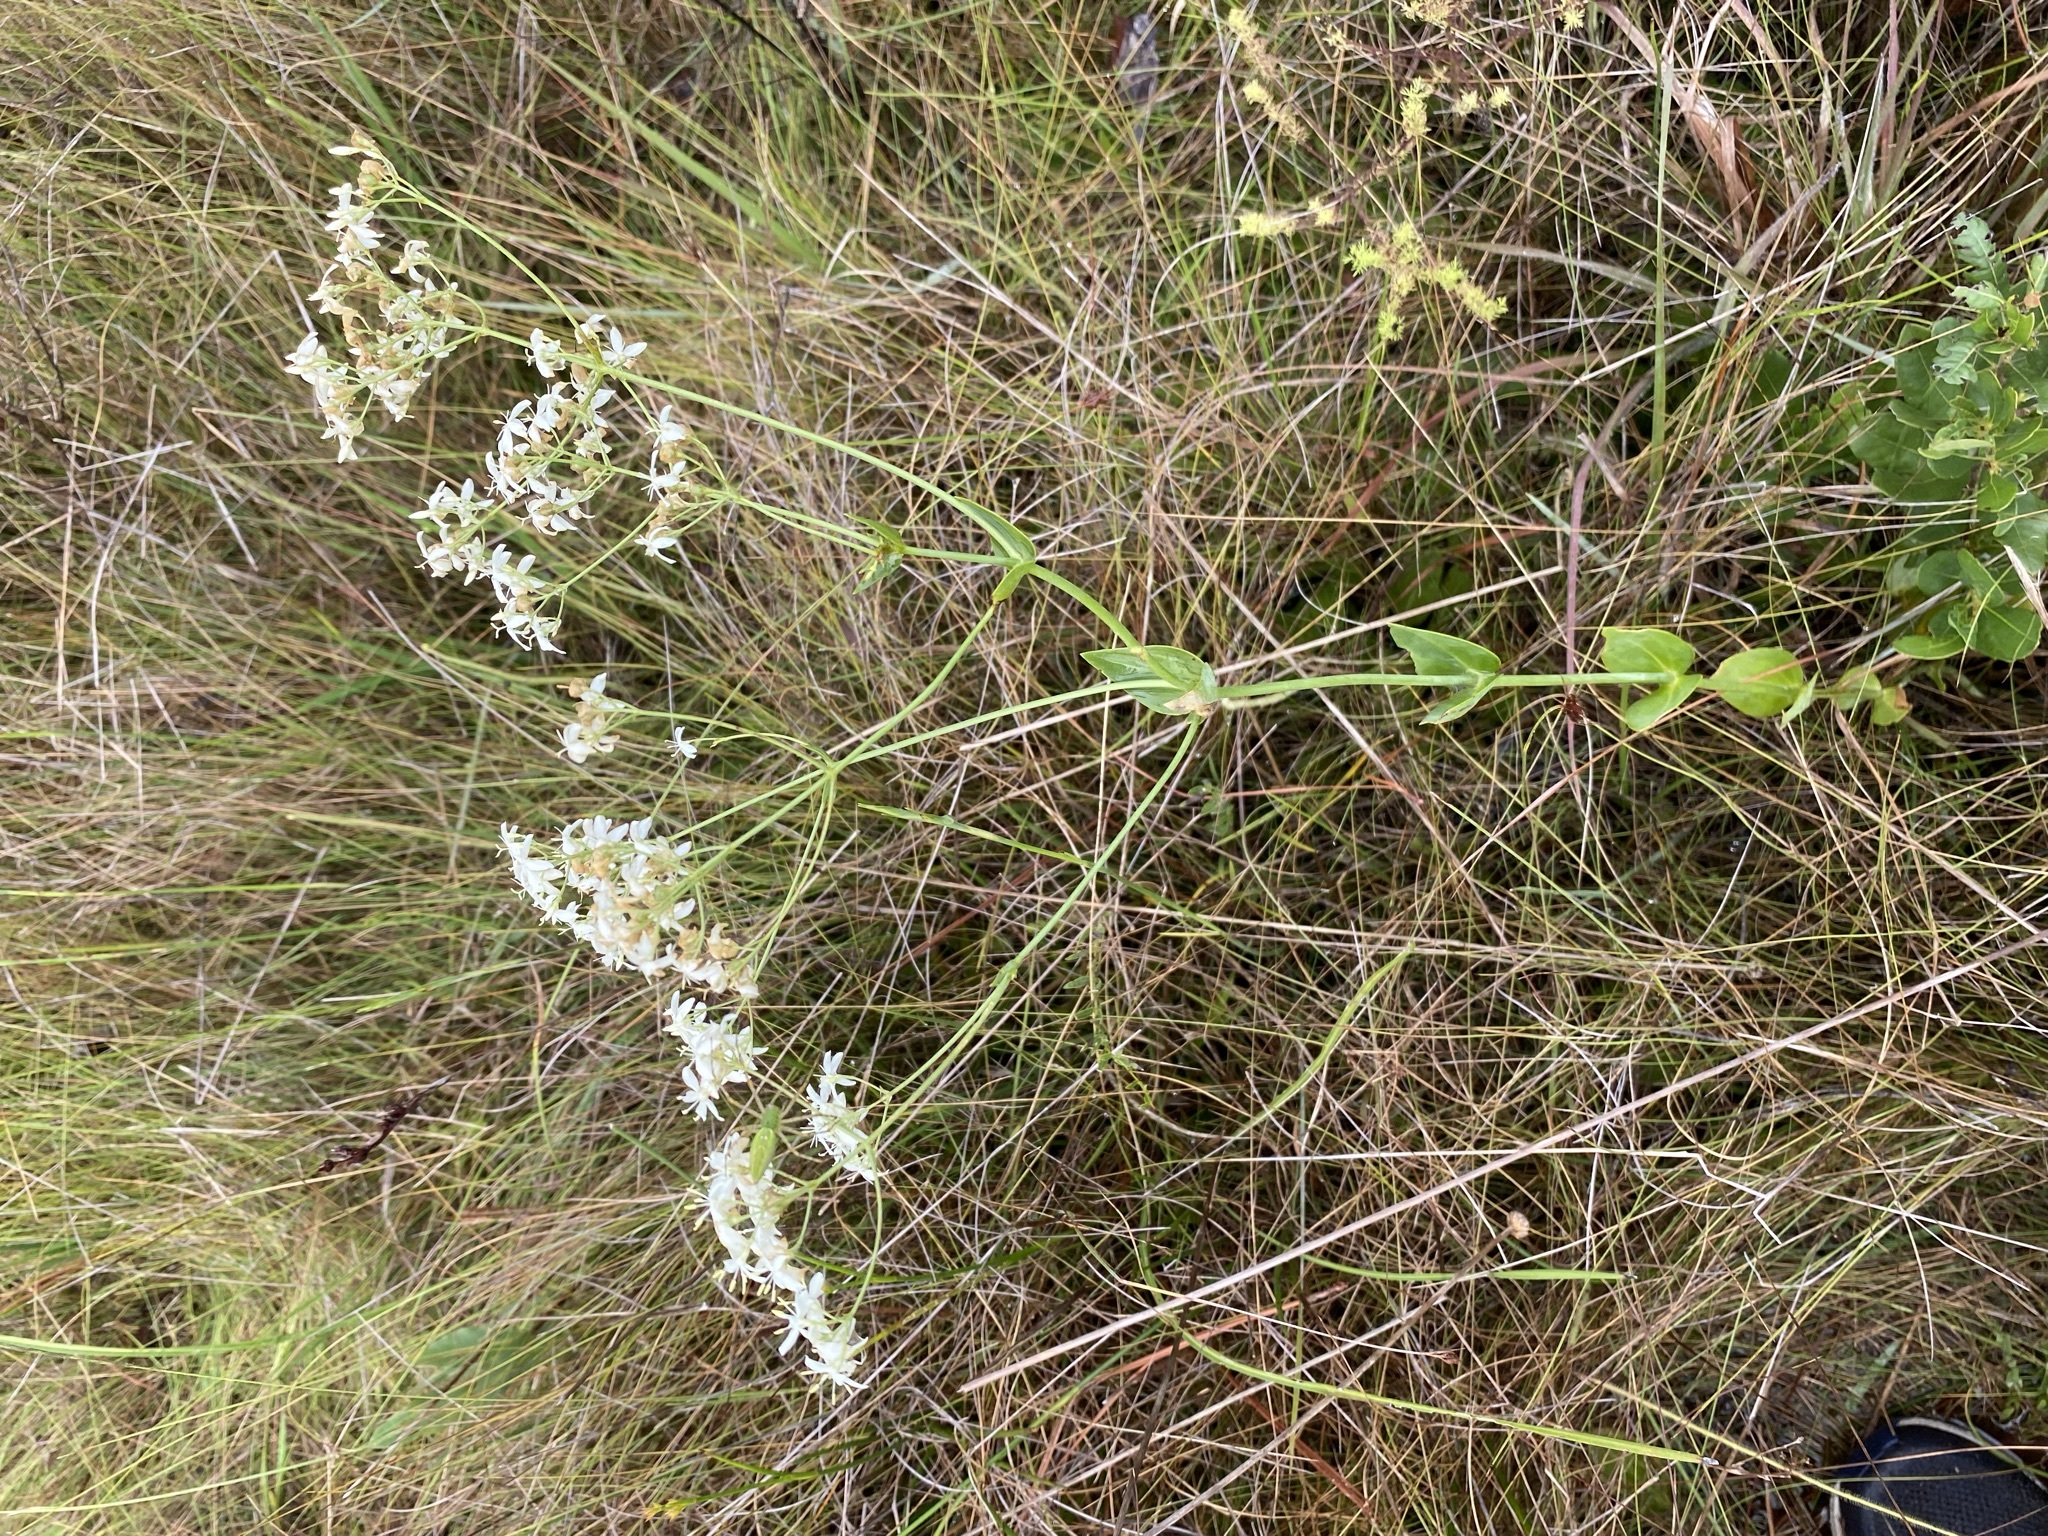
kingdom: Plantae
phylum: Tracheophyta
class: Magnoliopsida
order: Gentianales
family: Gentianaceae
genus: Sabatia
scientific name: Sabatia macrophylla
